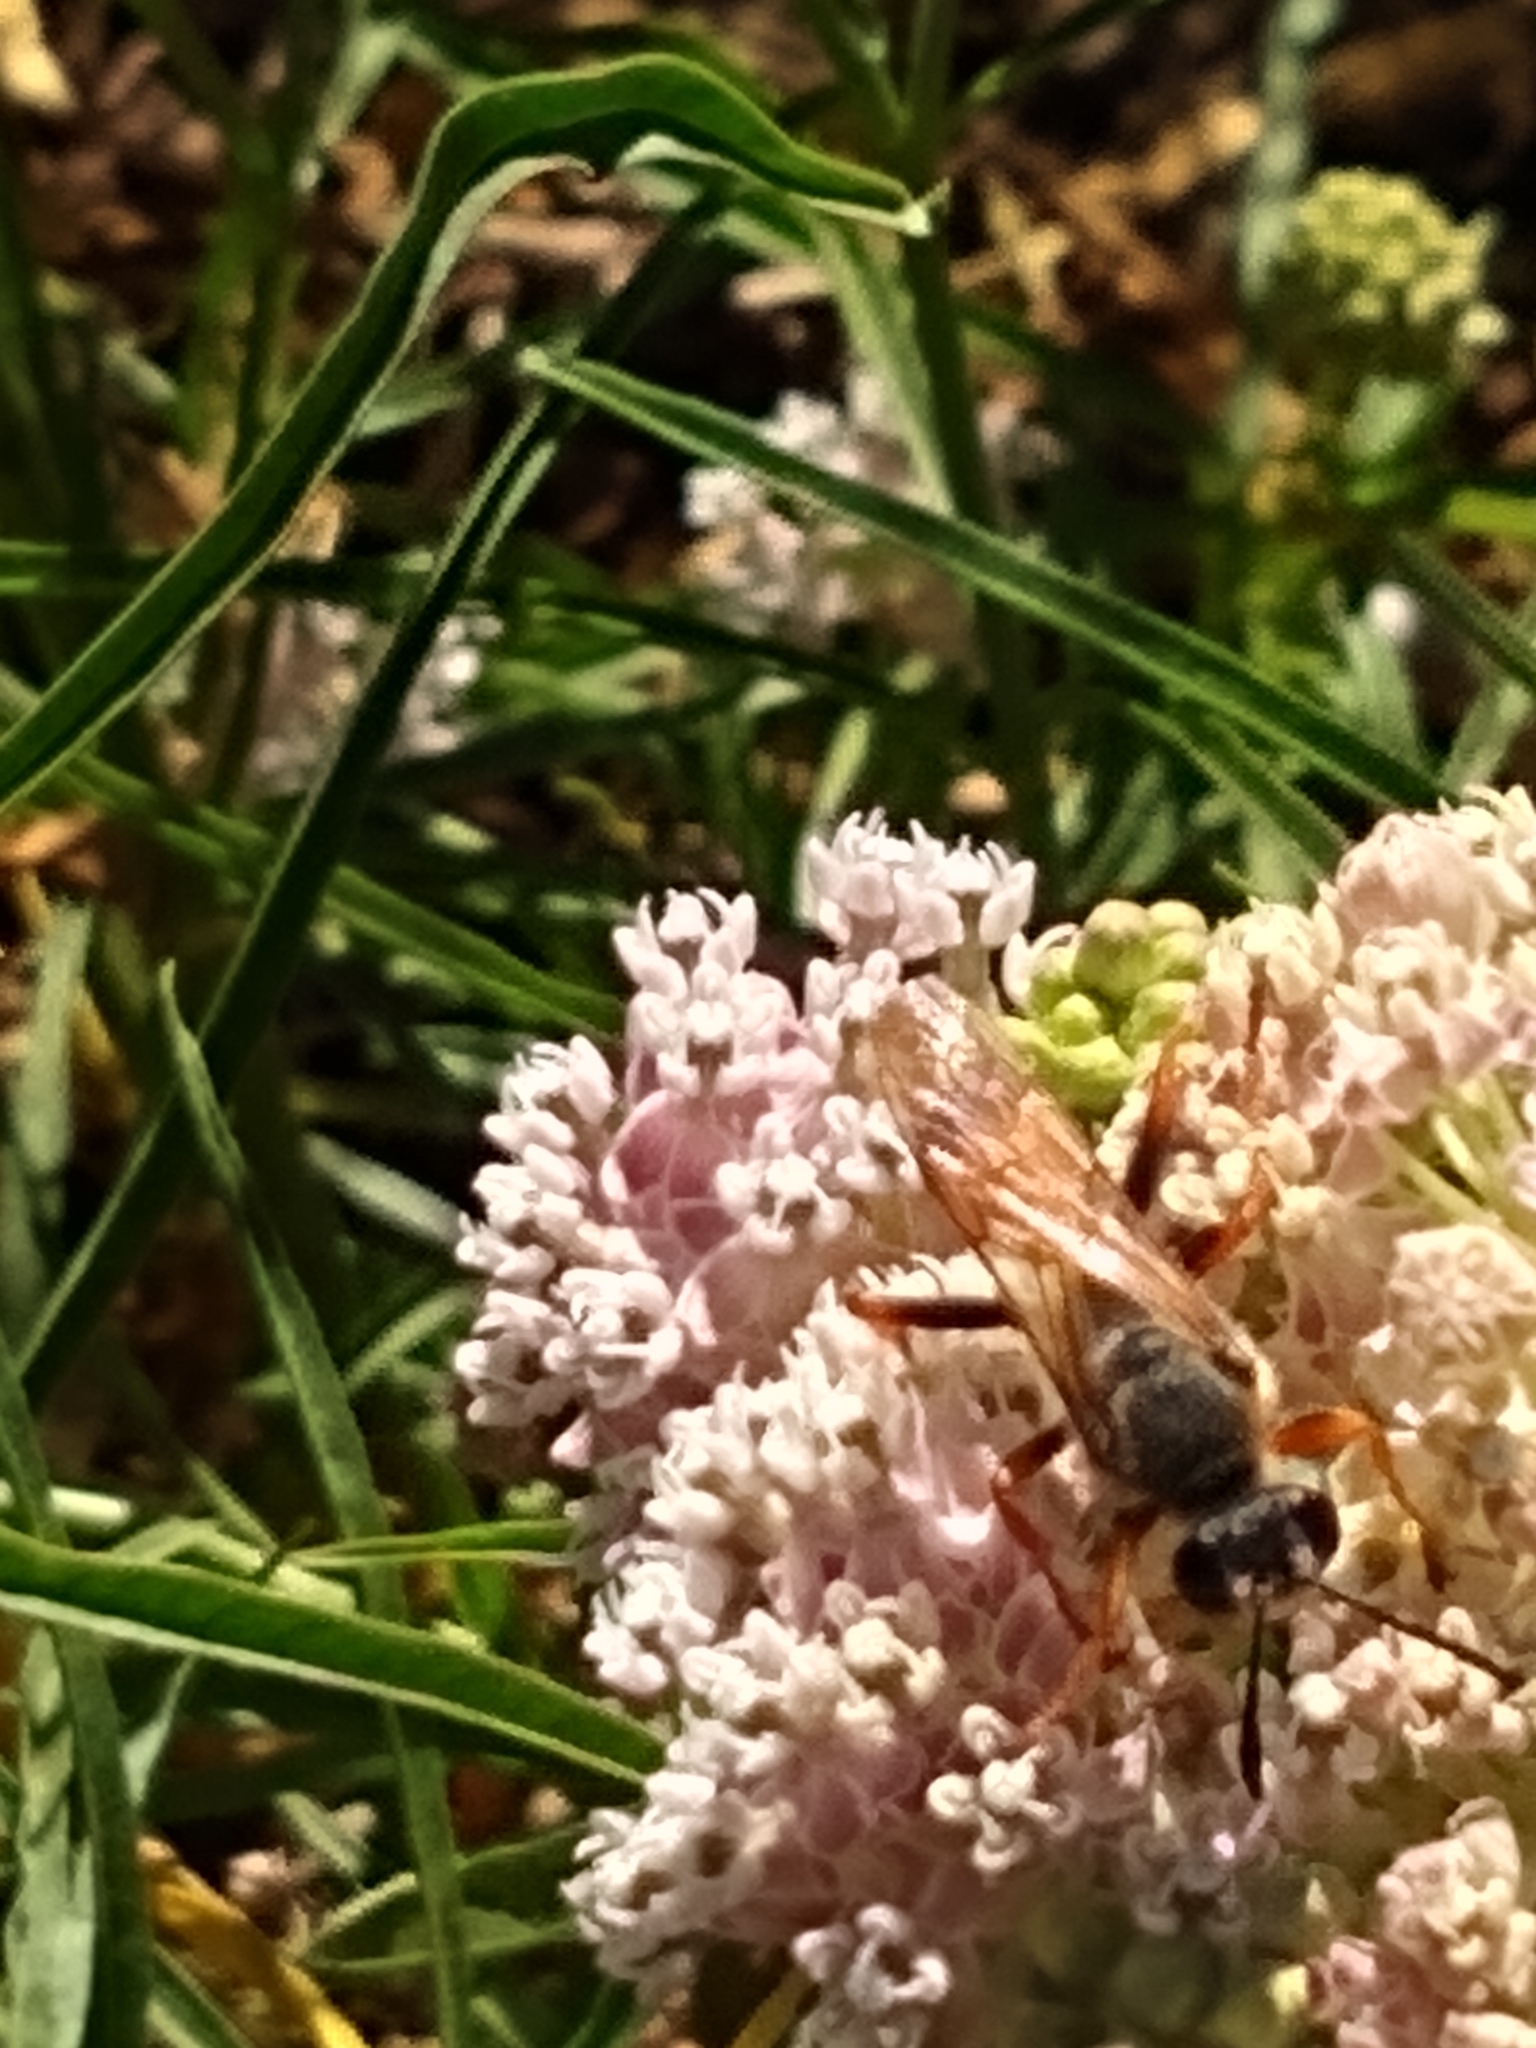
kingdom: Animalia
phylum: Arthropoda
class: Insecta
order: Hymenoptera
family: Sphecidae
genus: Sphex
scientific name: Sphex ichneumoneus
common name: Great golden digger wasp
